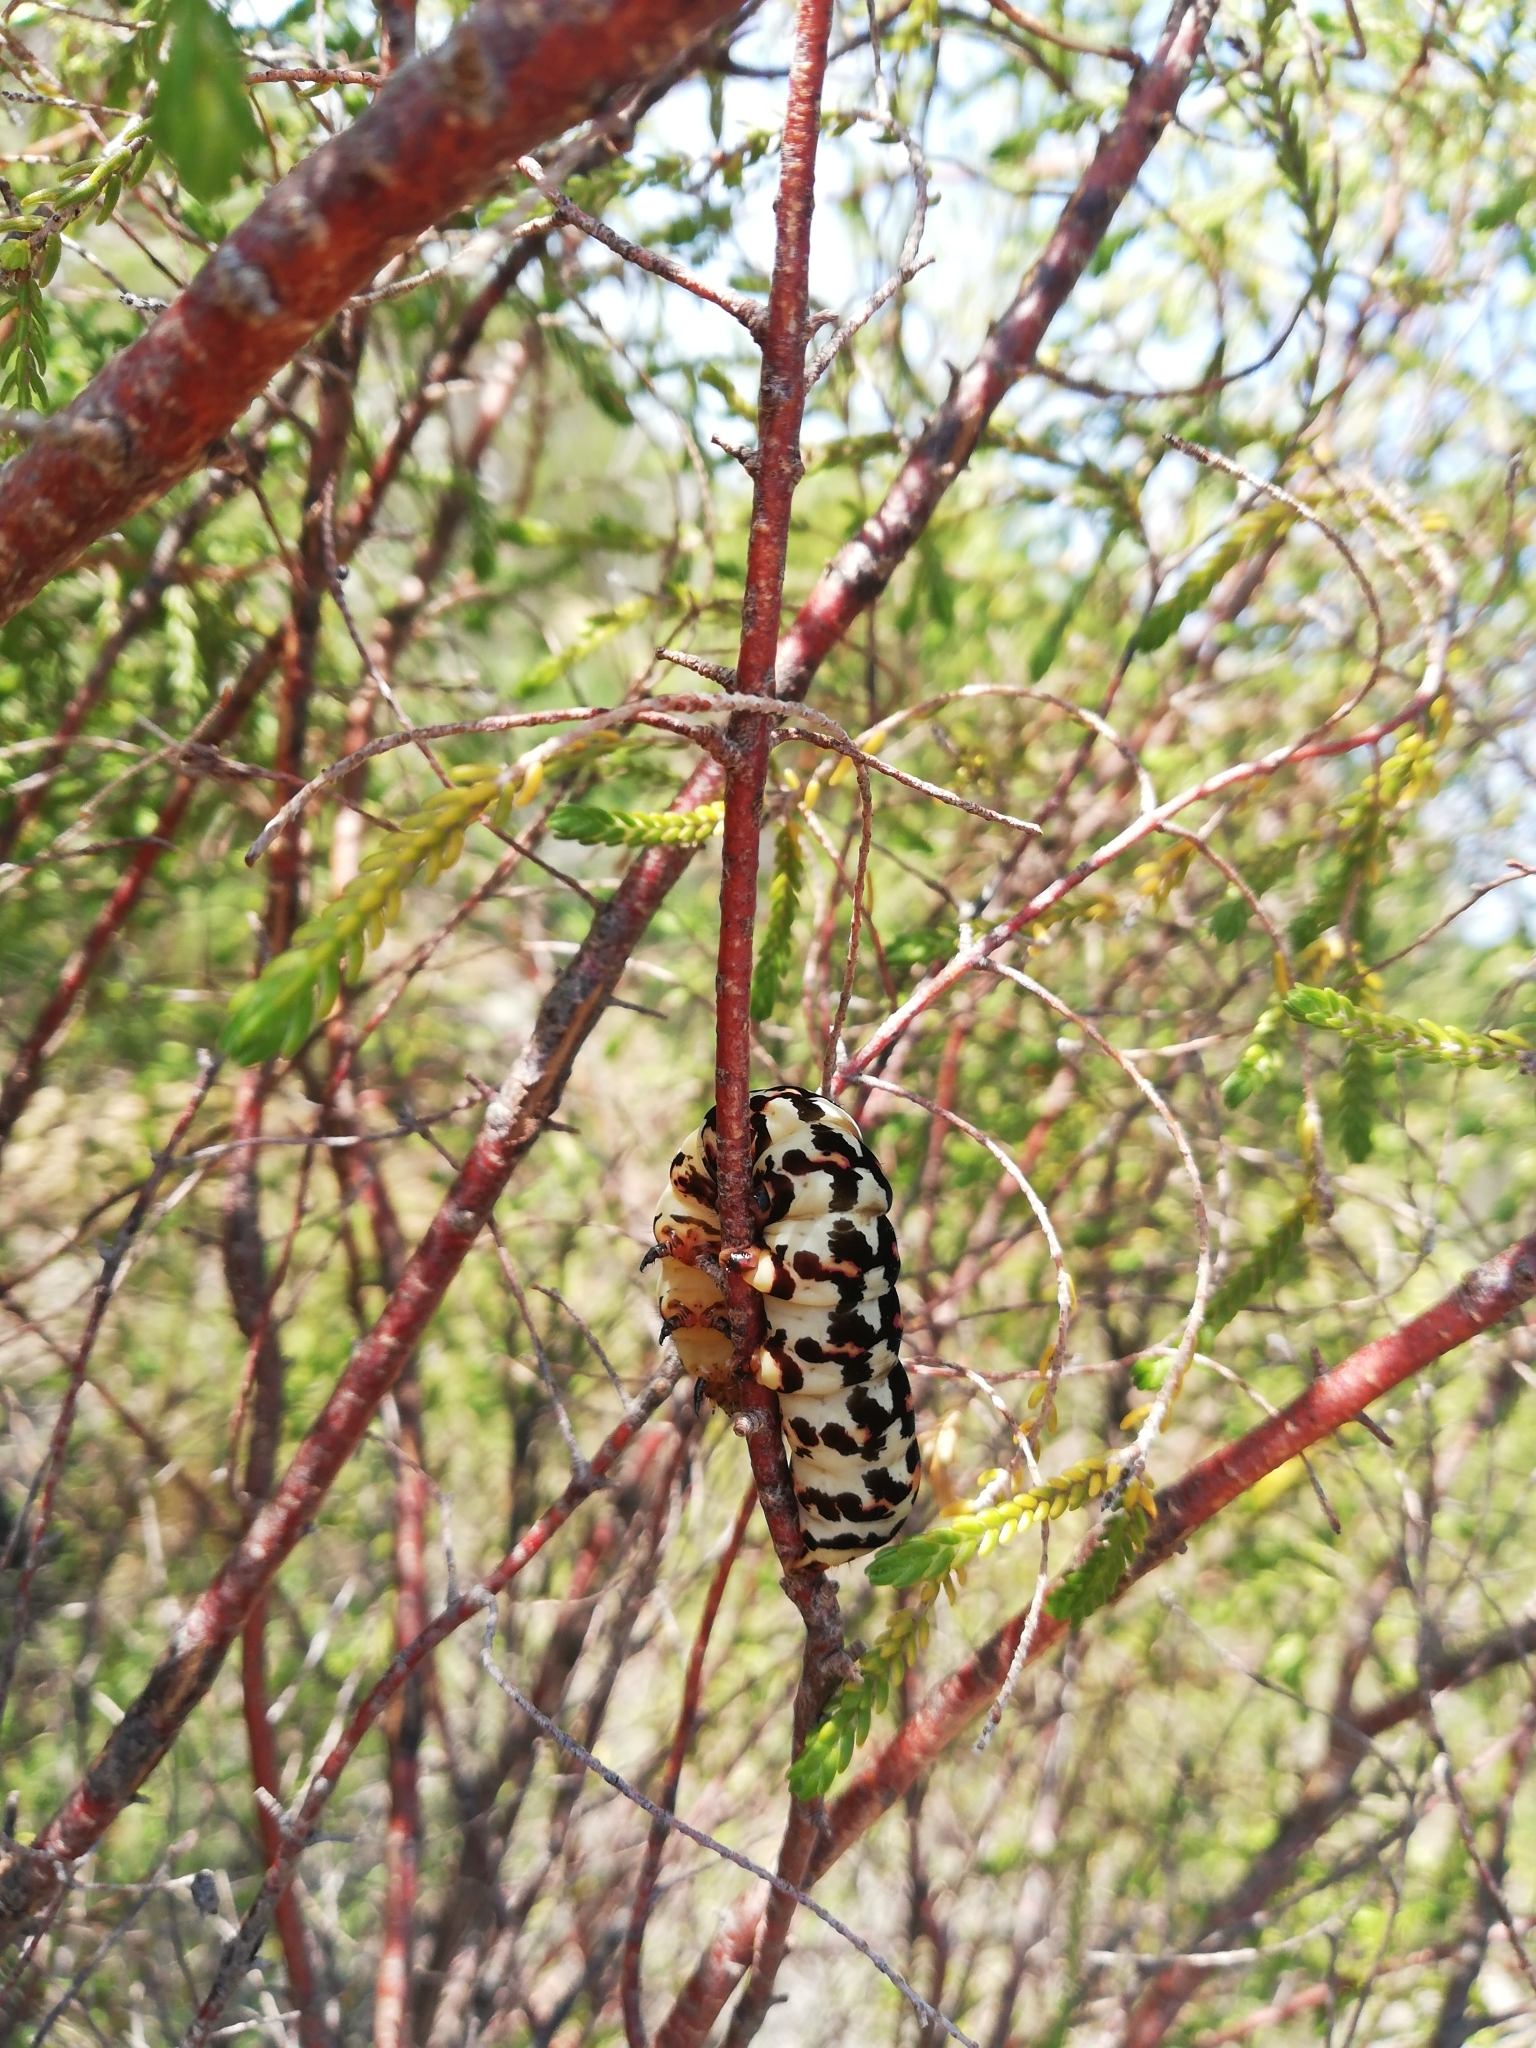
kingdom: Animalia
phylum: Arthropoda
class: Insecta
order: Lepidoptera
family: Noctuidae
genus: Diaphone
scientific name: Diaphone eumela
